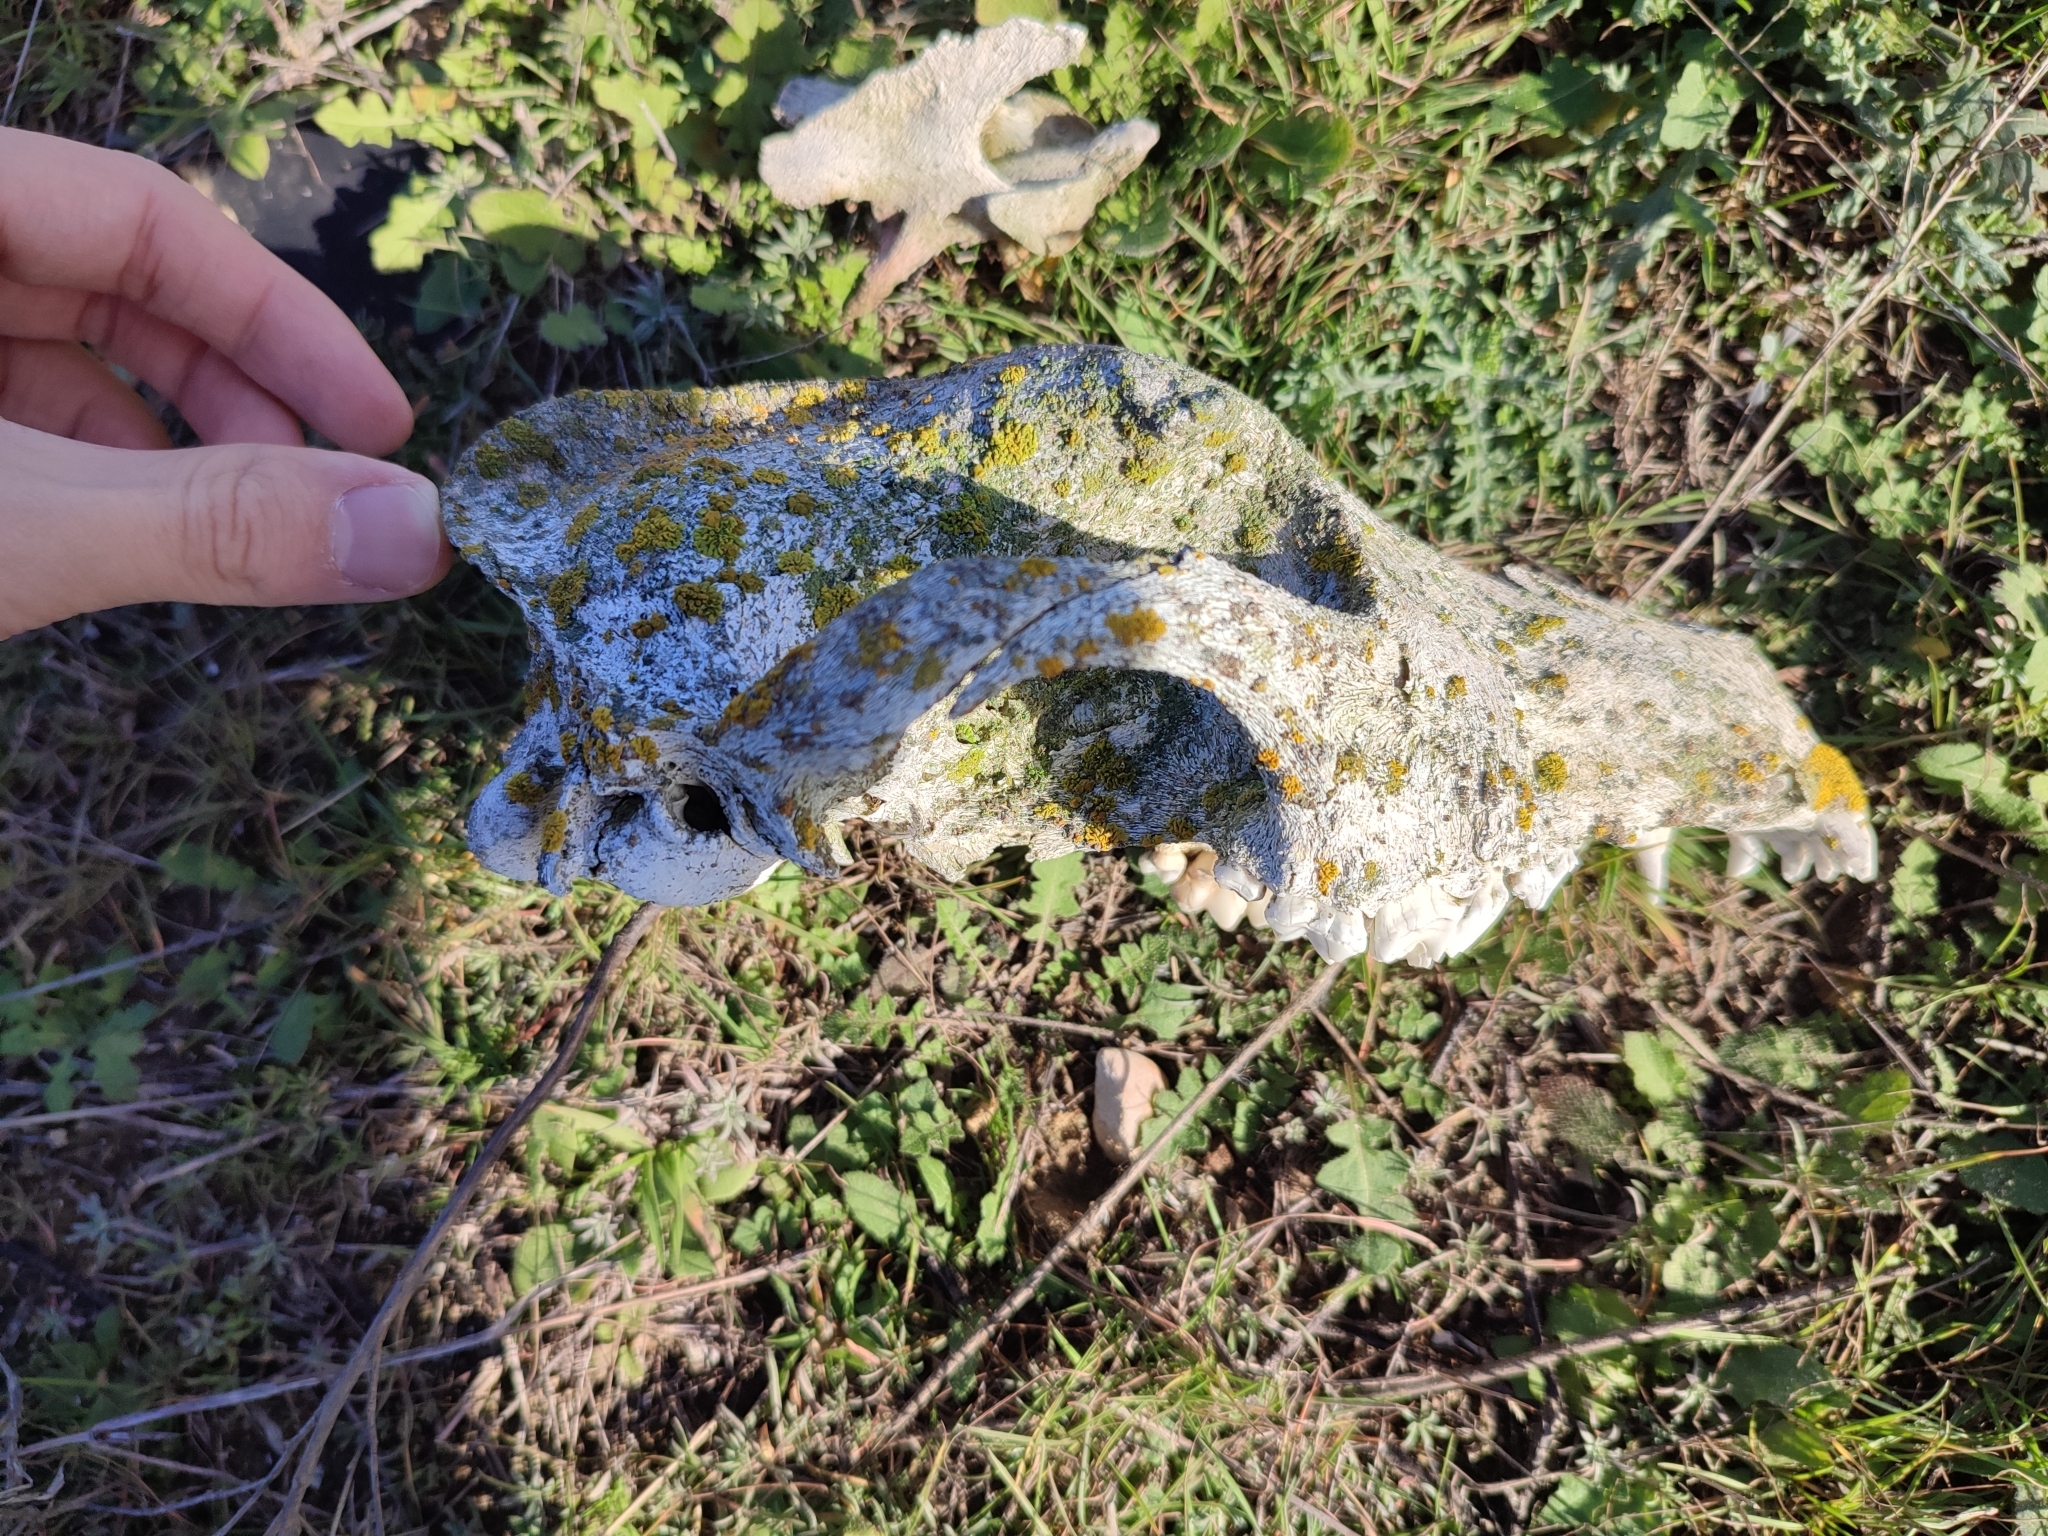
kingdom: Animalia
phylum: Chordata
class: Mammalia
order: Carnivora
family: Canidae
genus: Canis
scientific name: Canis lupus
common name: Gray wolf
